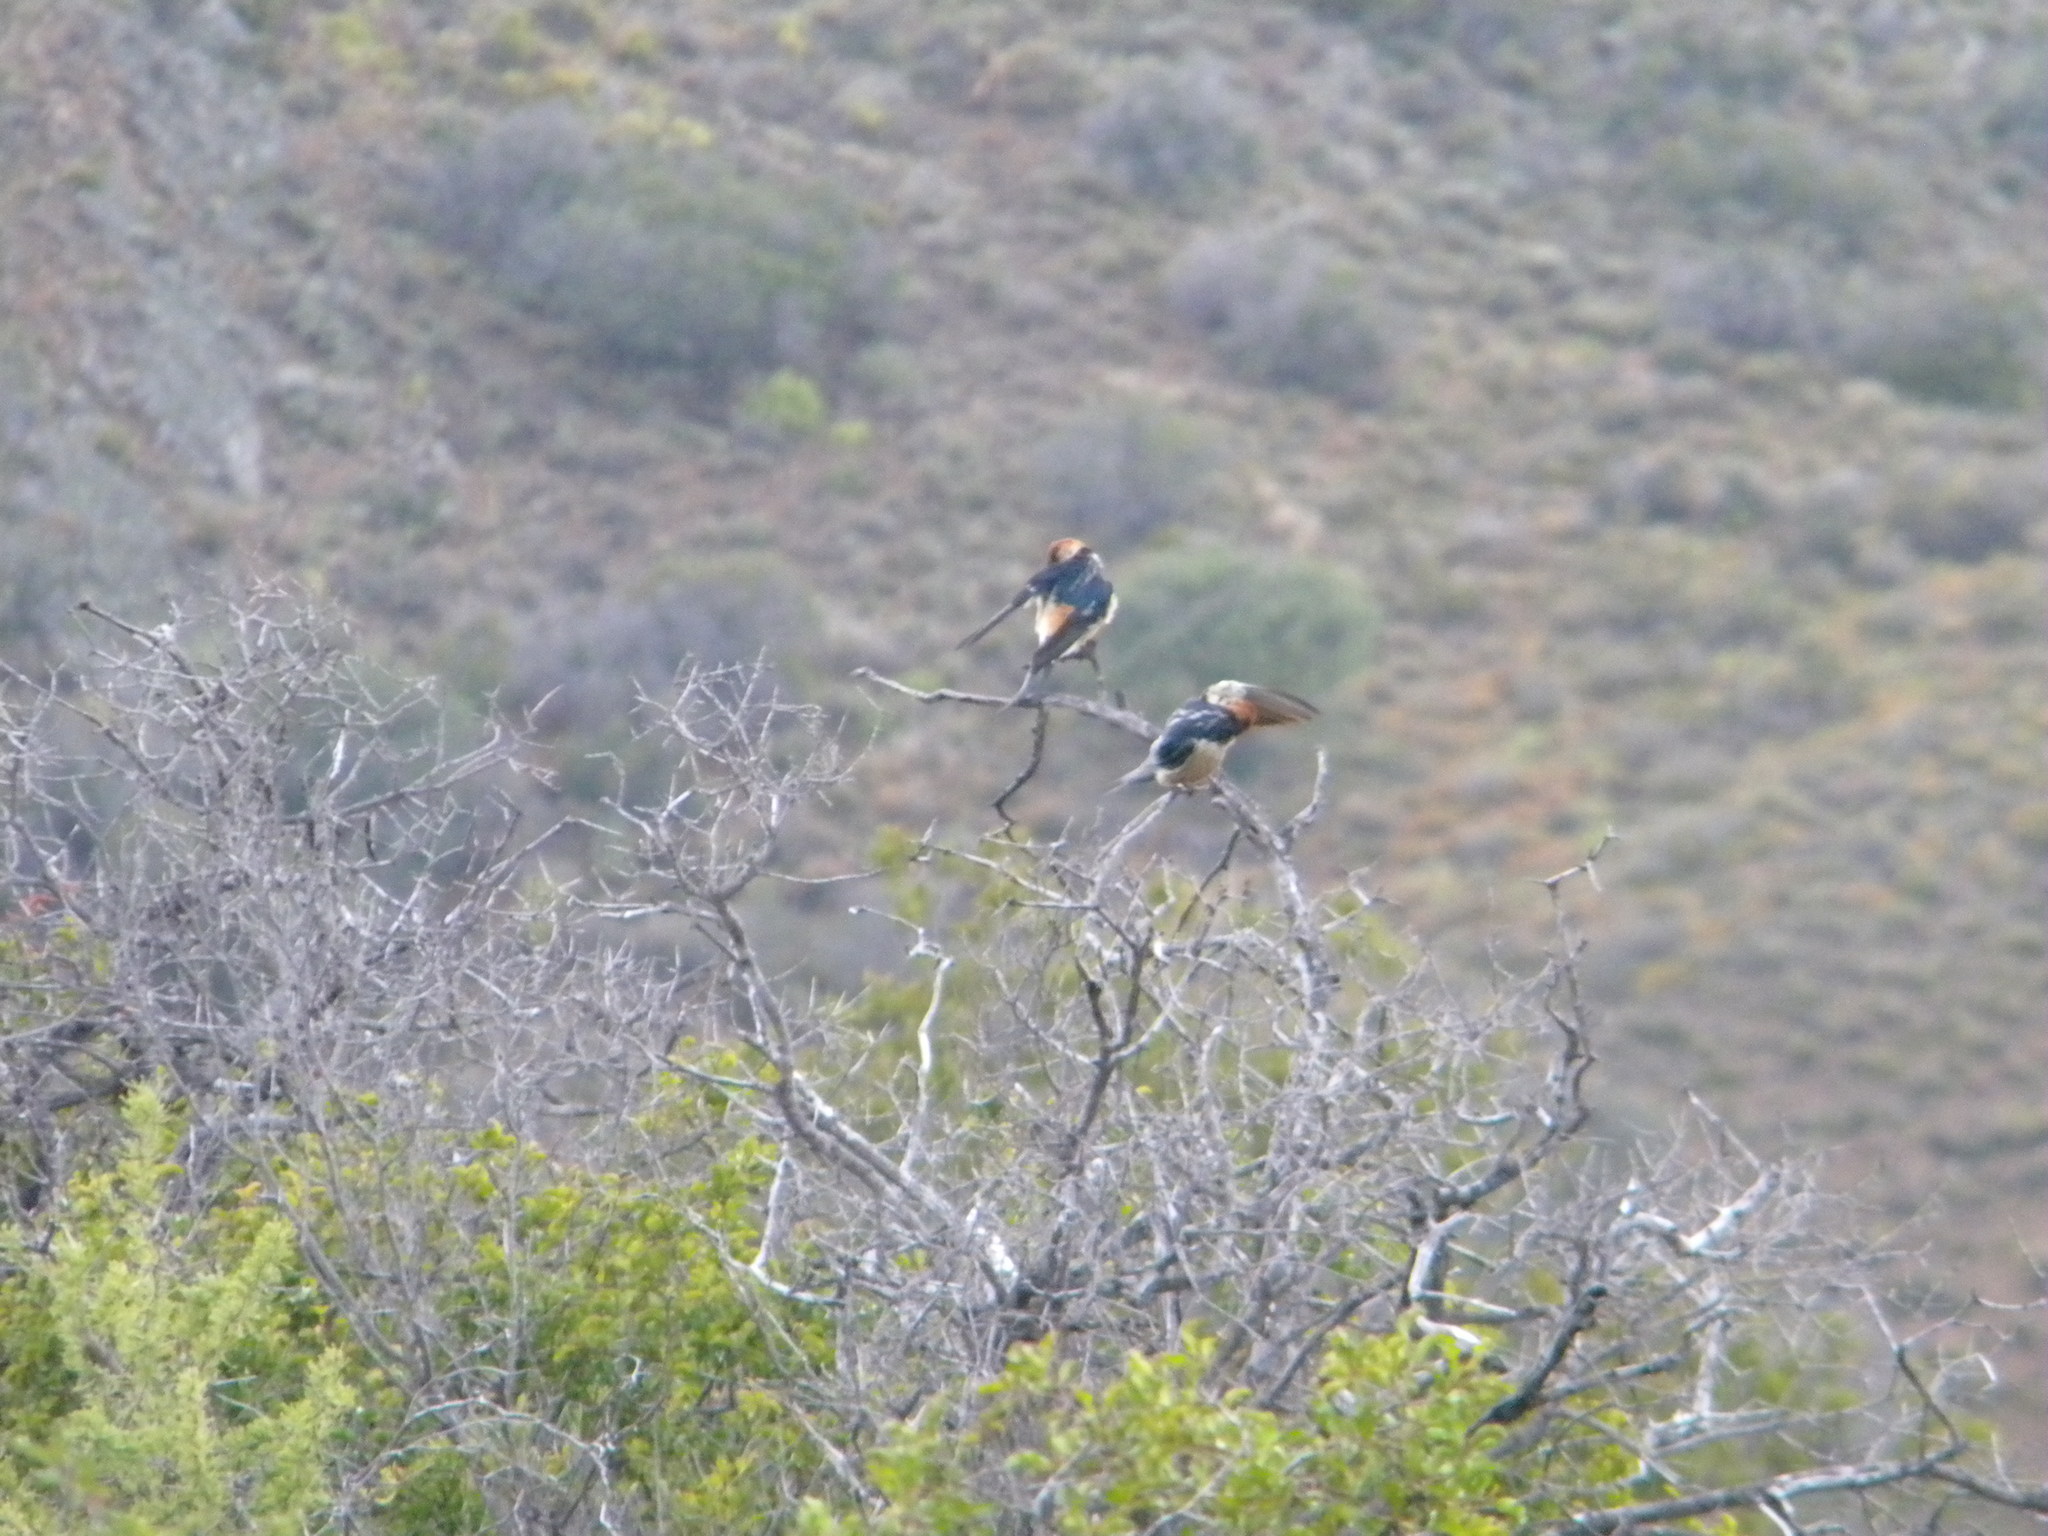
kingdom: Animalia
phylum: Chordata
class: Aves
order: Passeriformes
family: Hirundinidae
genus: Cecropis
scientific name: Cecropis cucullata
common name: Greater striped-swallow
